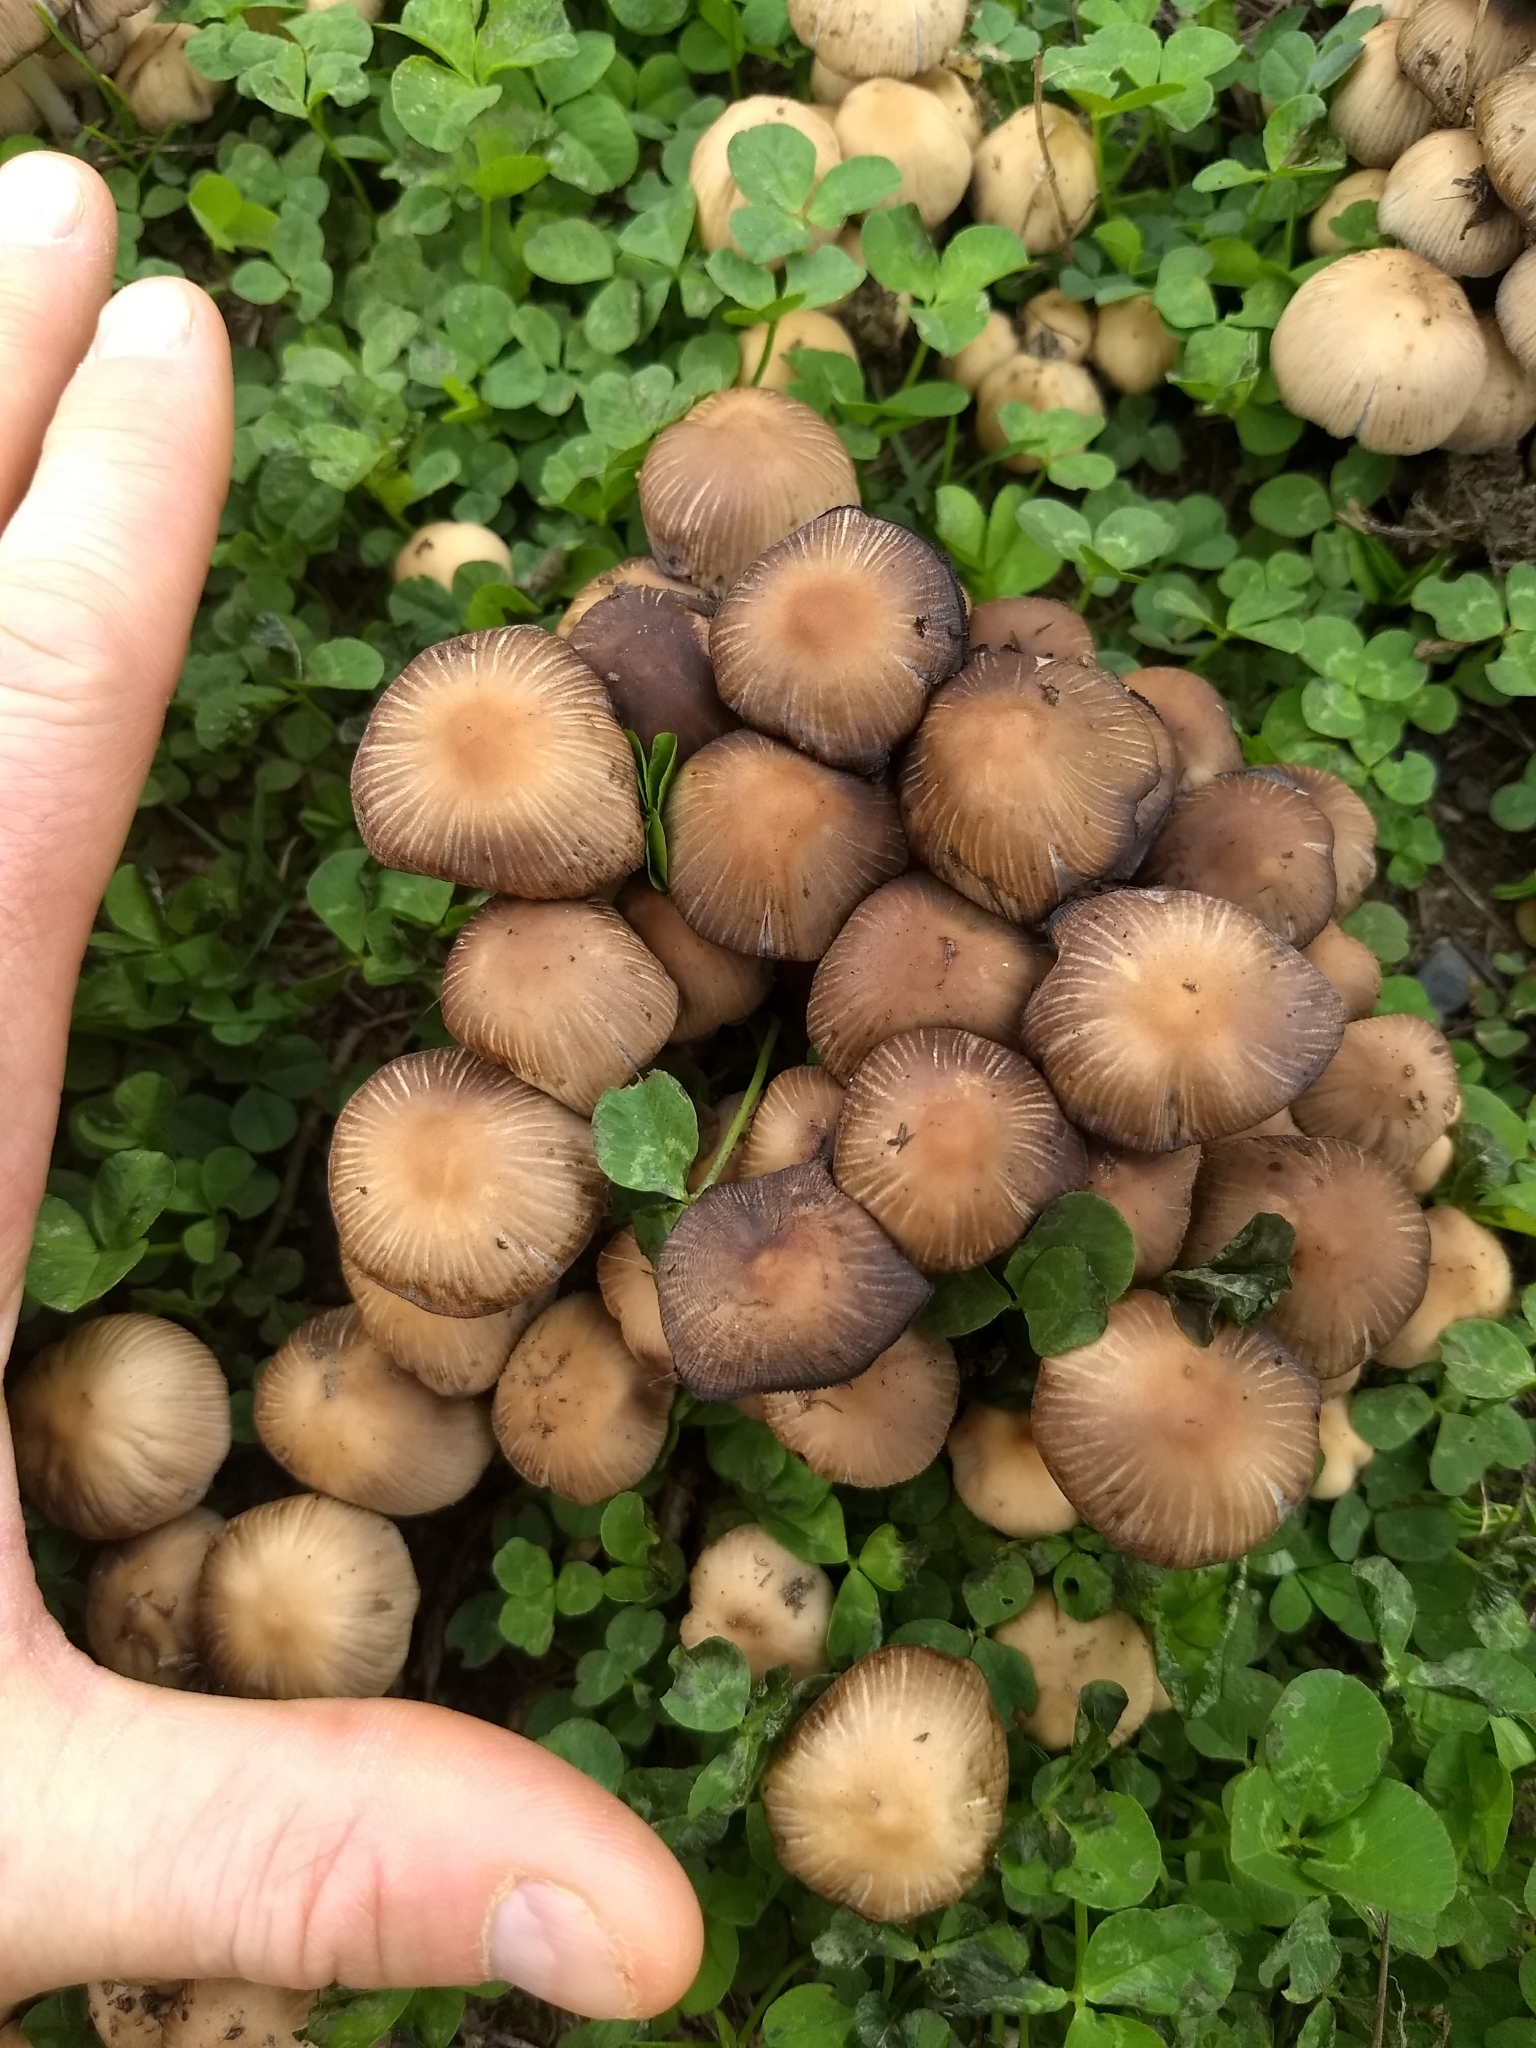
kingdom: Fungi
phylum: Basidiomycota
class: Agaricomycetes
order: Agaricales
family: Psathyrellaceae
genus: Coprinellus
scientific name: Coprinellus micaceus
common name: Glistening ink-cap
